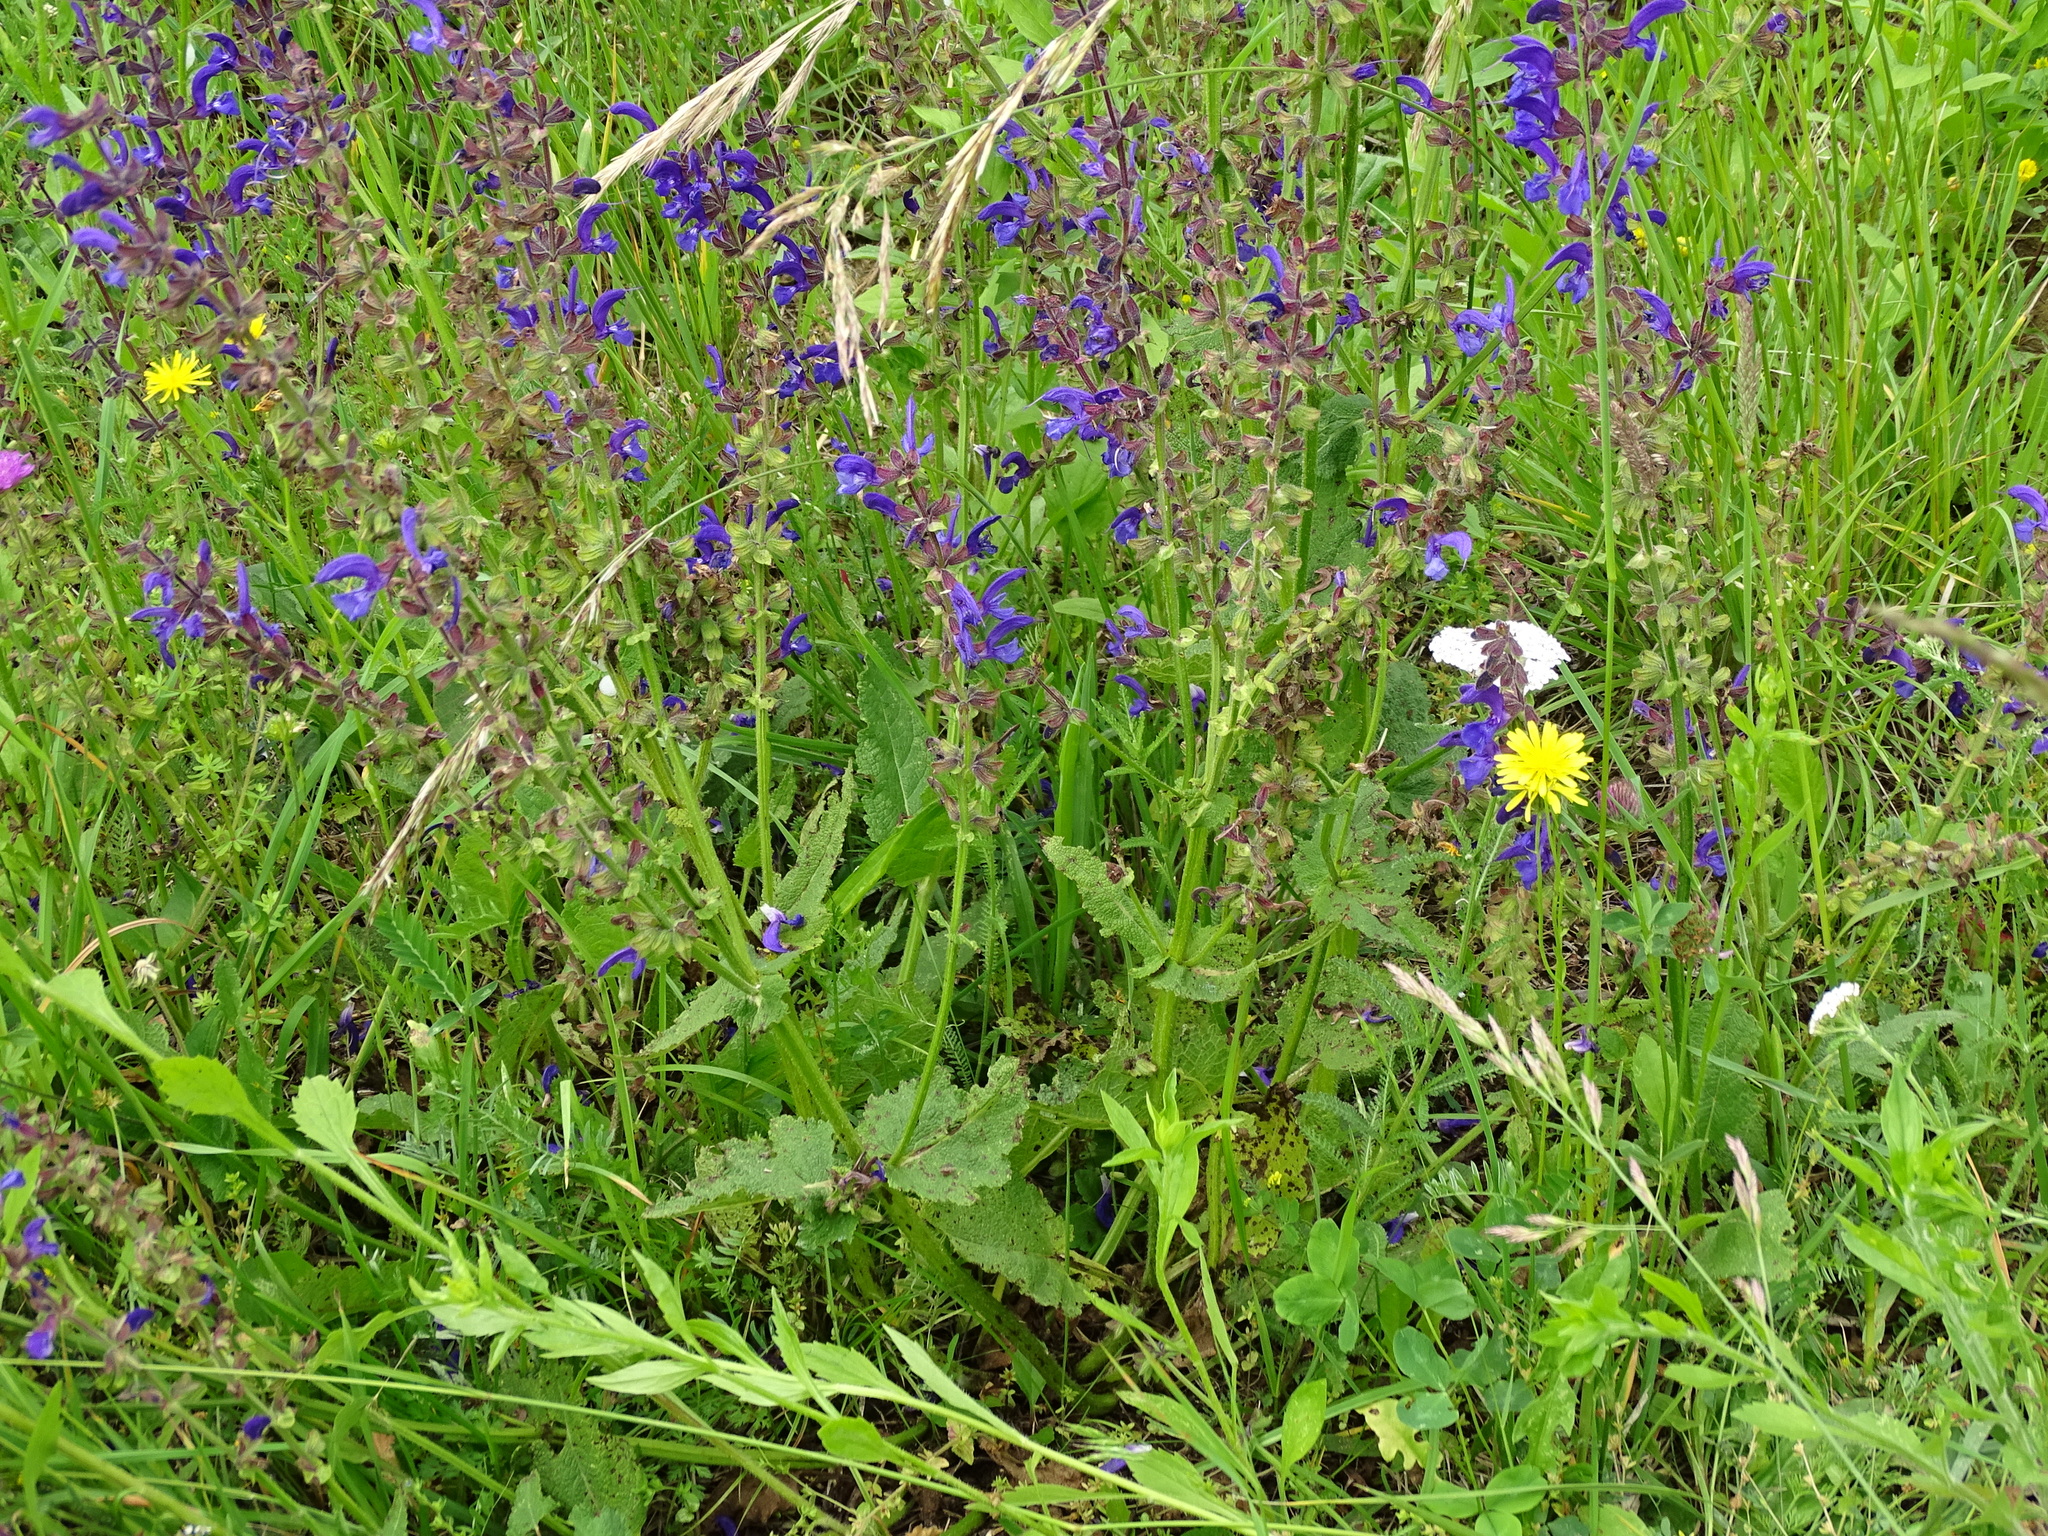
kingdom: Plantae
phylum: Tracheophyta
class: Magnoliopsida
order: Lamiales
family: Lamiaceae
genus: Salvia
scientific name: Salvia pratensis
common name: Meadow sage
